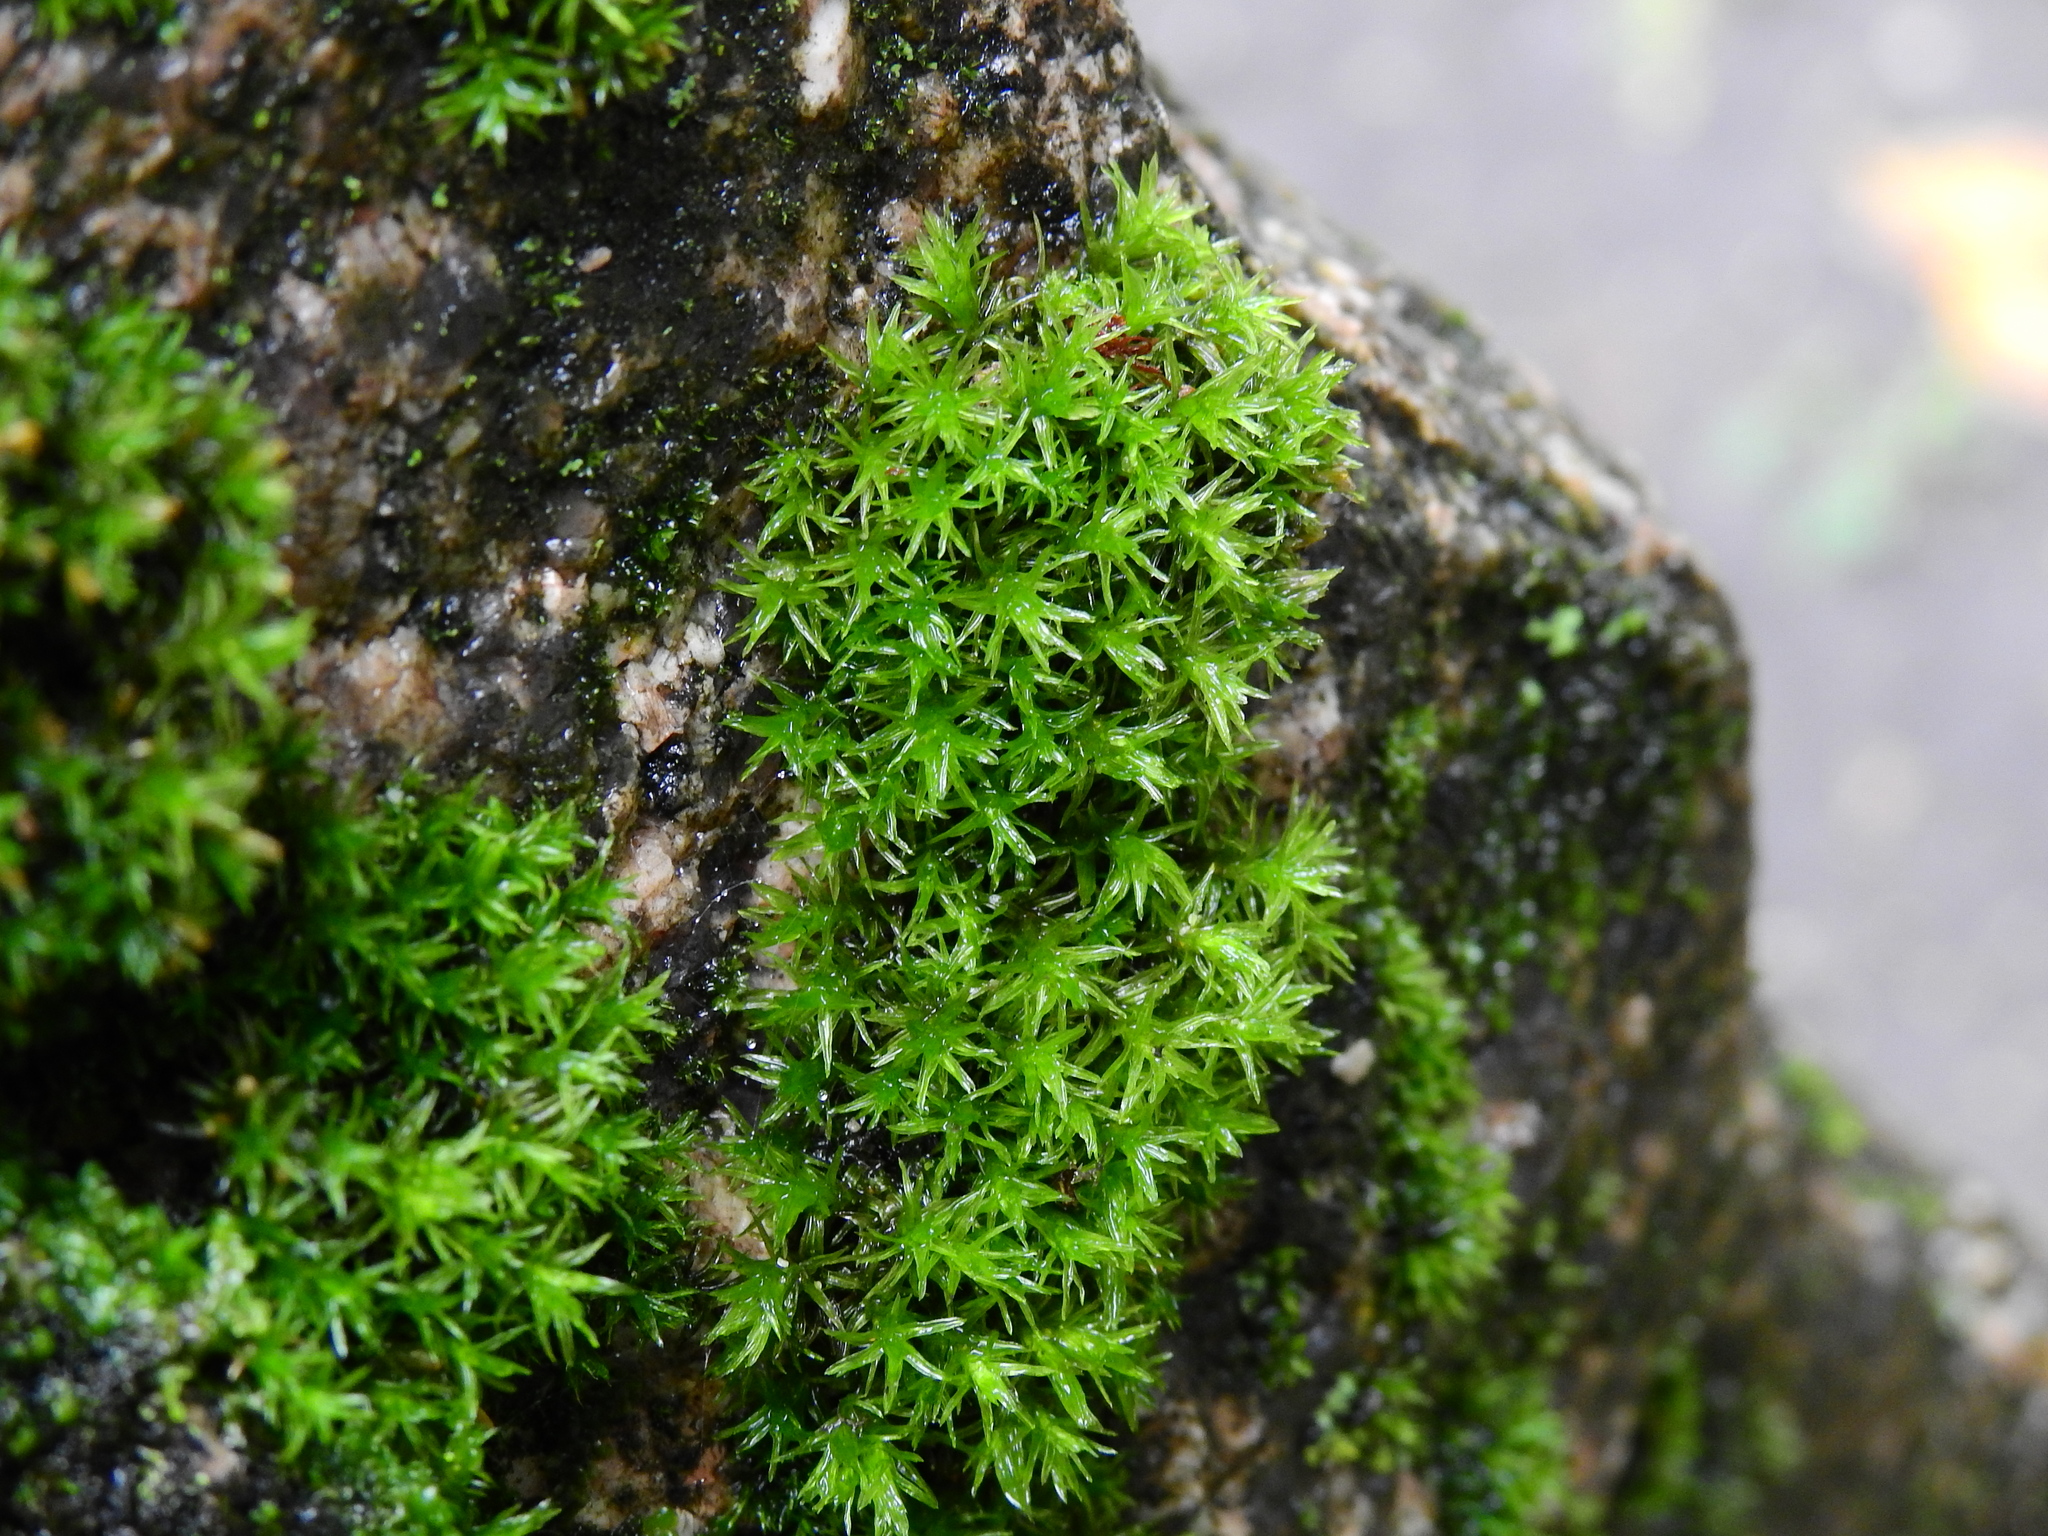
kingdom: Plantae
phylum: Bryophyta
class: Bryopsida
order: Pottiales
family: Pottiaceae
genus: Vinealobryum
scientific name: Vinealobryum vineale
